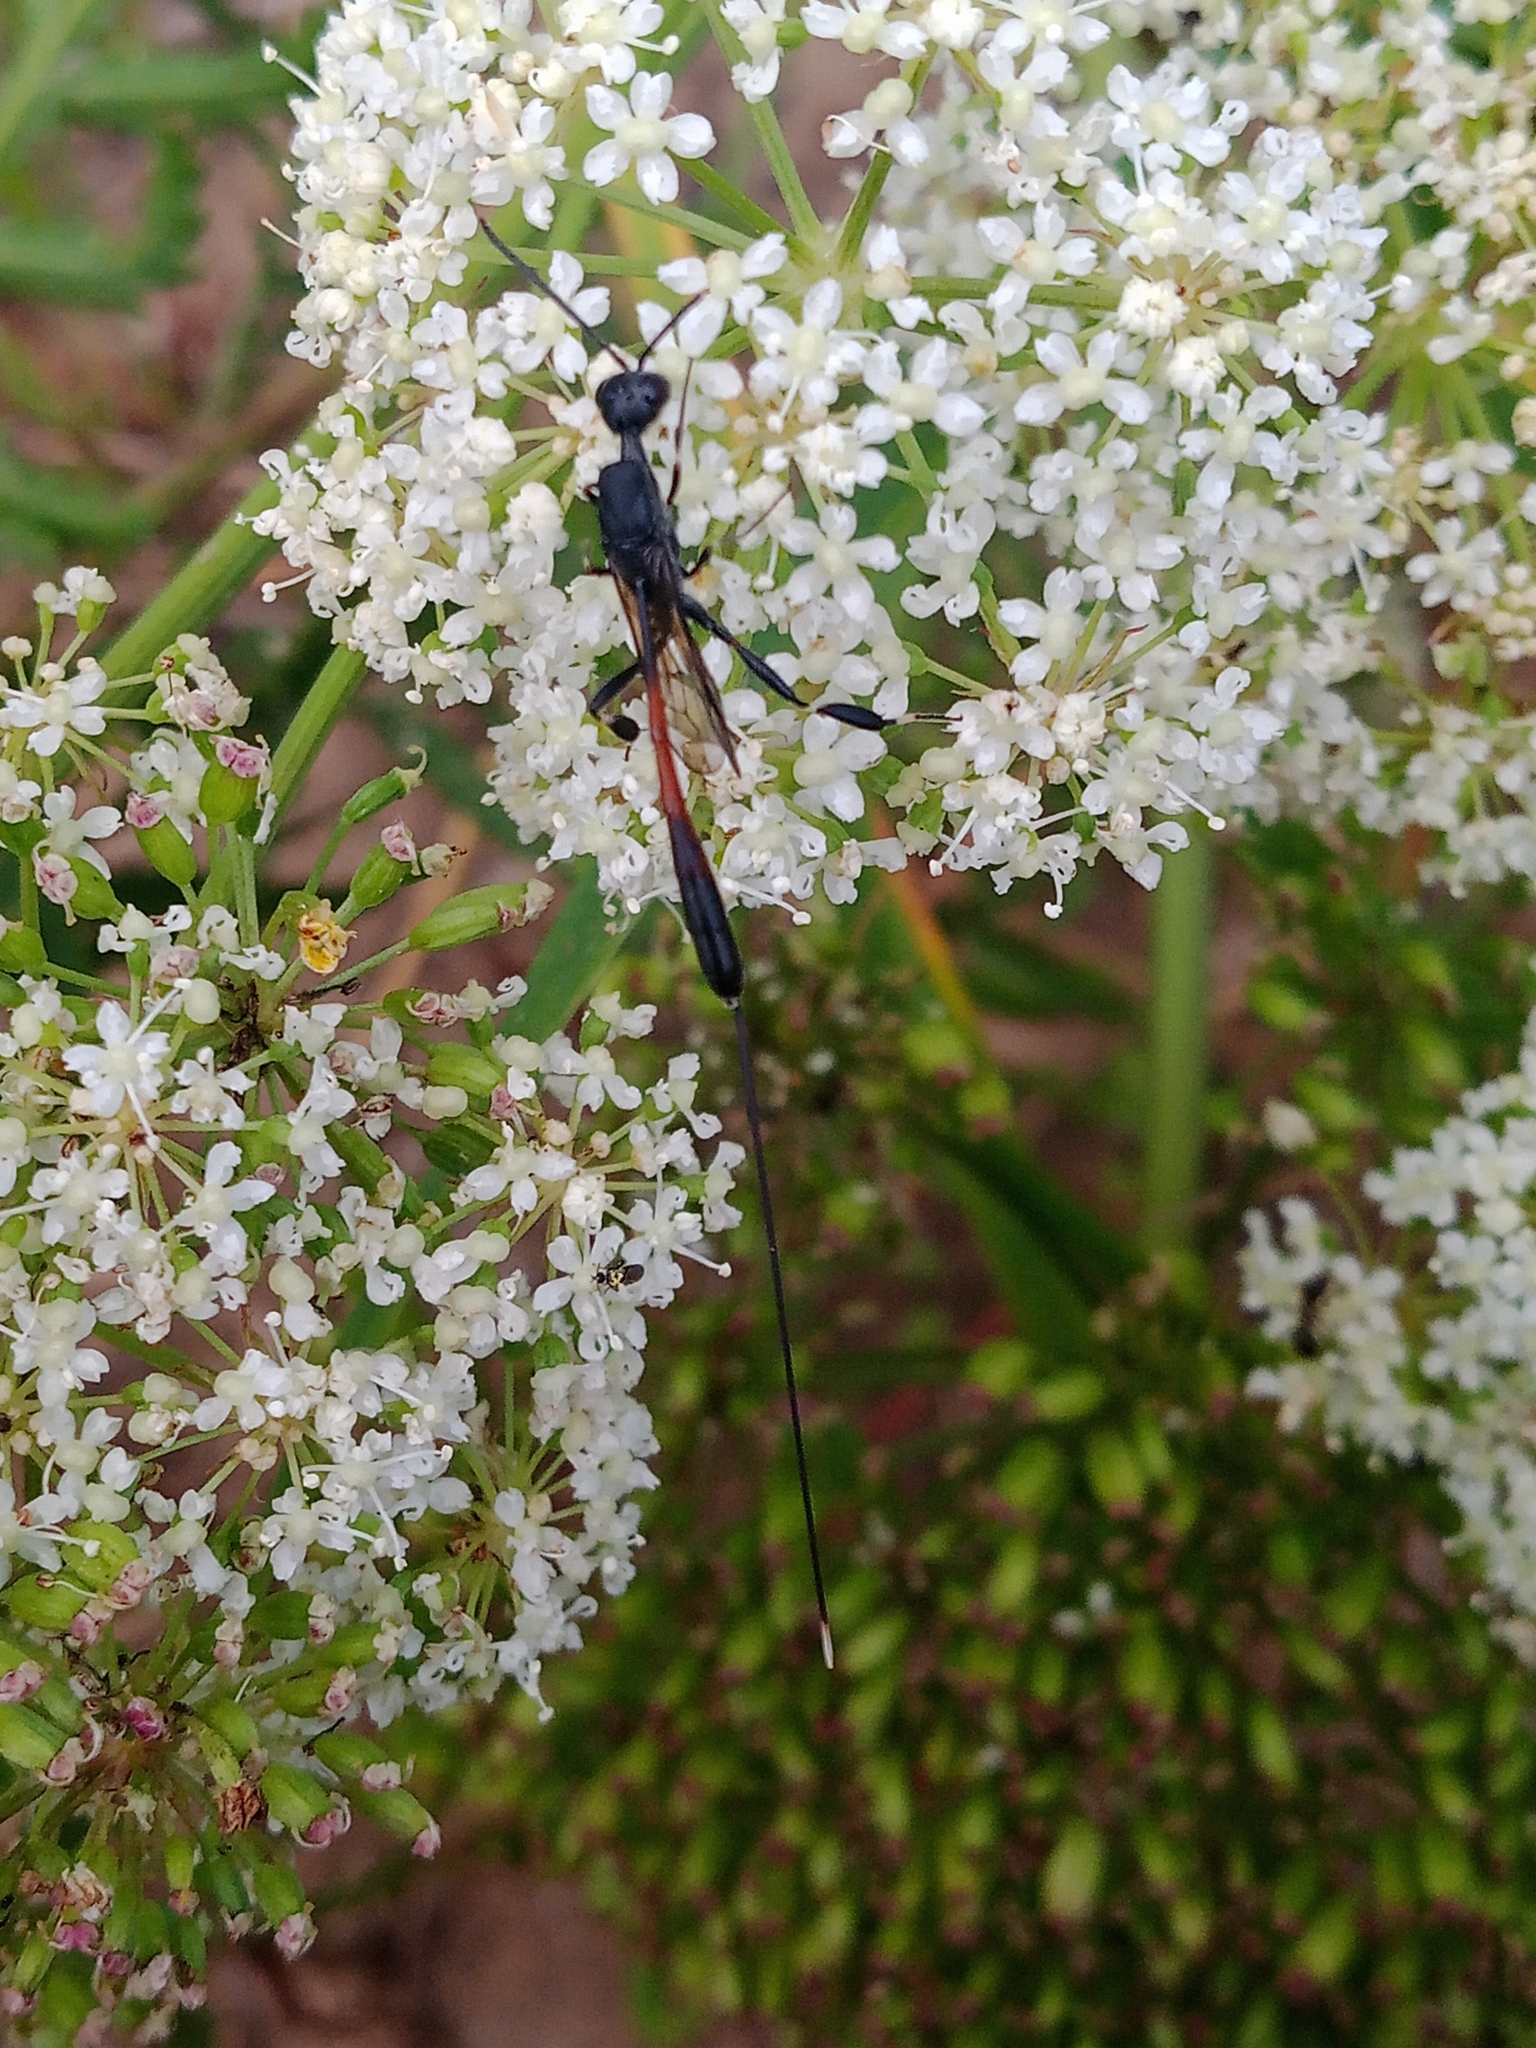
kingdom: Animalia
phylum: Arthropoda
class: Insecta
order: Hymenoptera
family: Gasteruptiidae
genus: Gasteruption
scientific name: Gasteruption caucasicum
